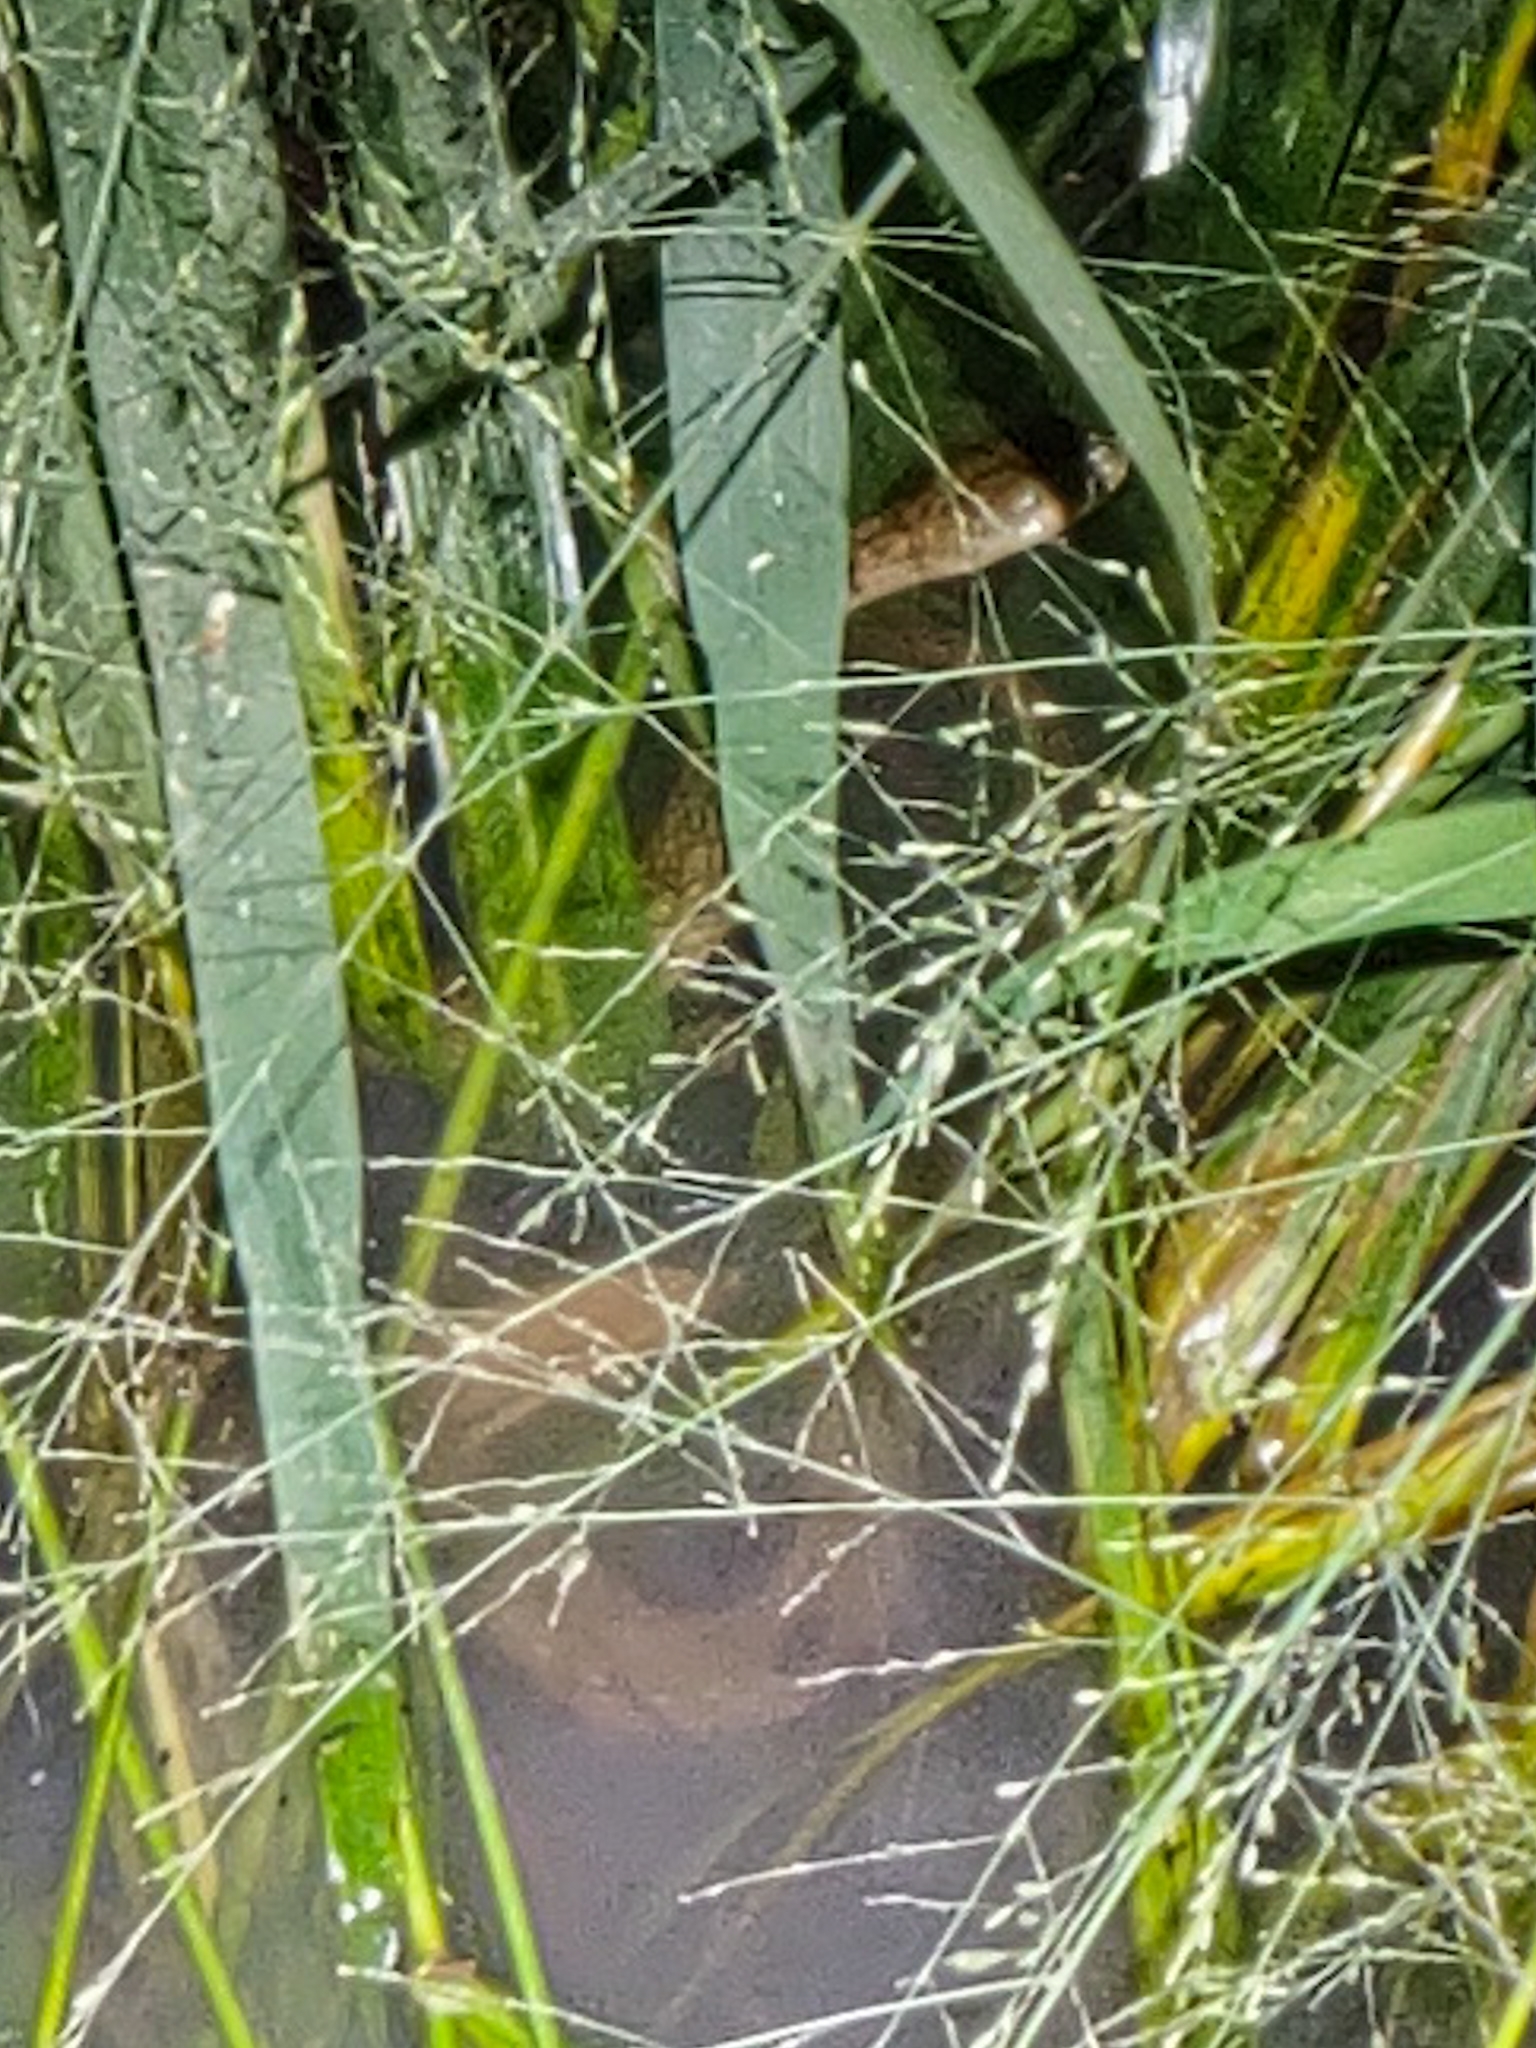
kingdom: Animalia
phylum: Chordata
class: Squamata
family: Colubridae
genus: Fowlea
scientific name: Fowlea piscator
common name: Asiatic water snake
